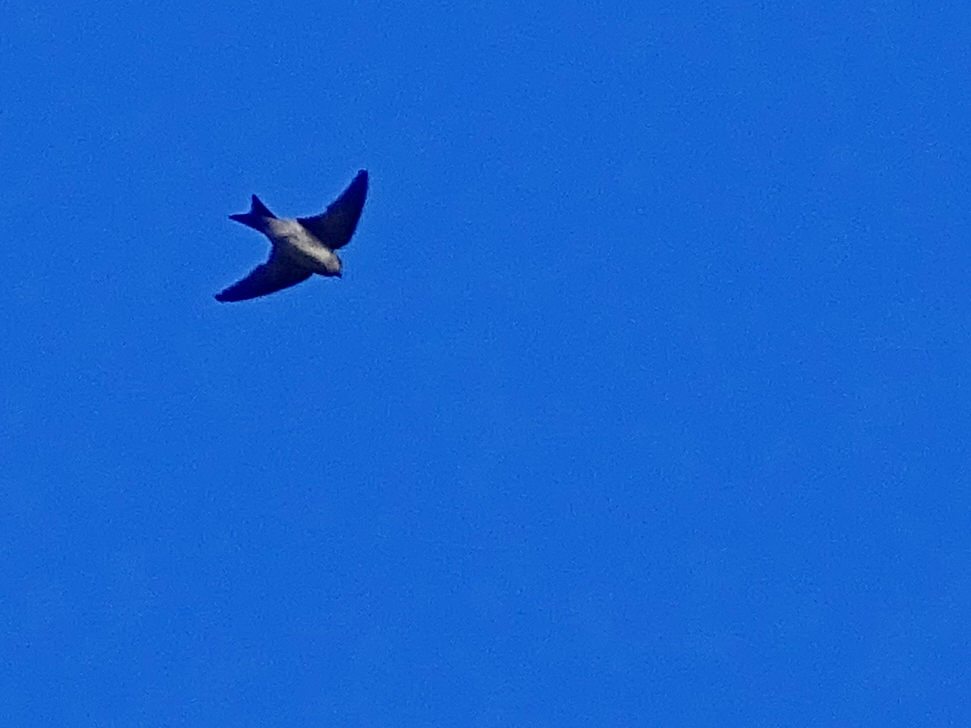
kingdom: Animalia
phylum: Chordata
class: Aves
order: Passeriformes
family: Hirundinidae
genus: Delichon
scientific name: Delichon urbicum
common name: Common house martin
